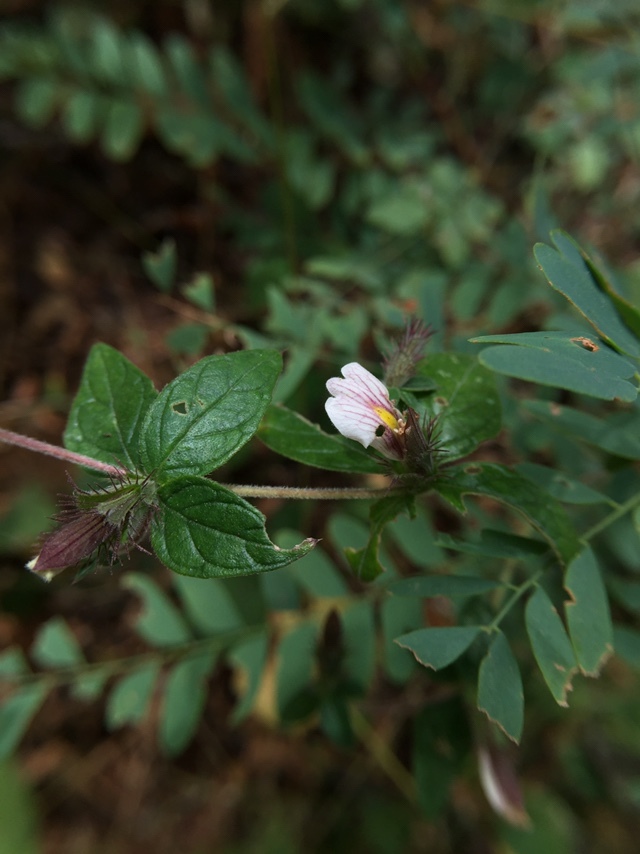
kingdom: Plantae
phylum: Tracheophyta
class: Magnoliopsida
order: Lamiales
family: Acanthaceae
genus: Blepharis
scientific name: Blepharis maderaspatensis
